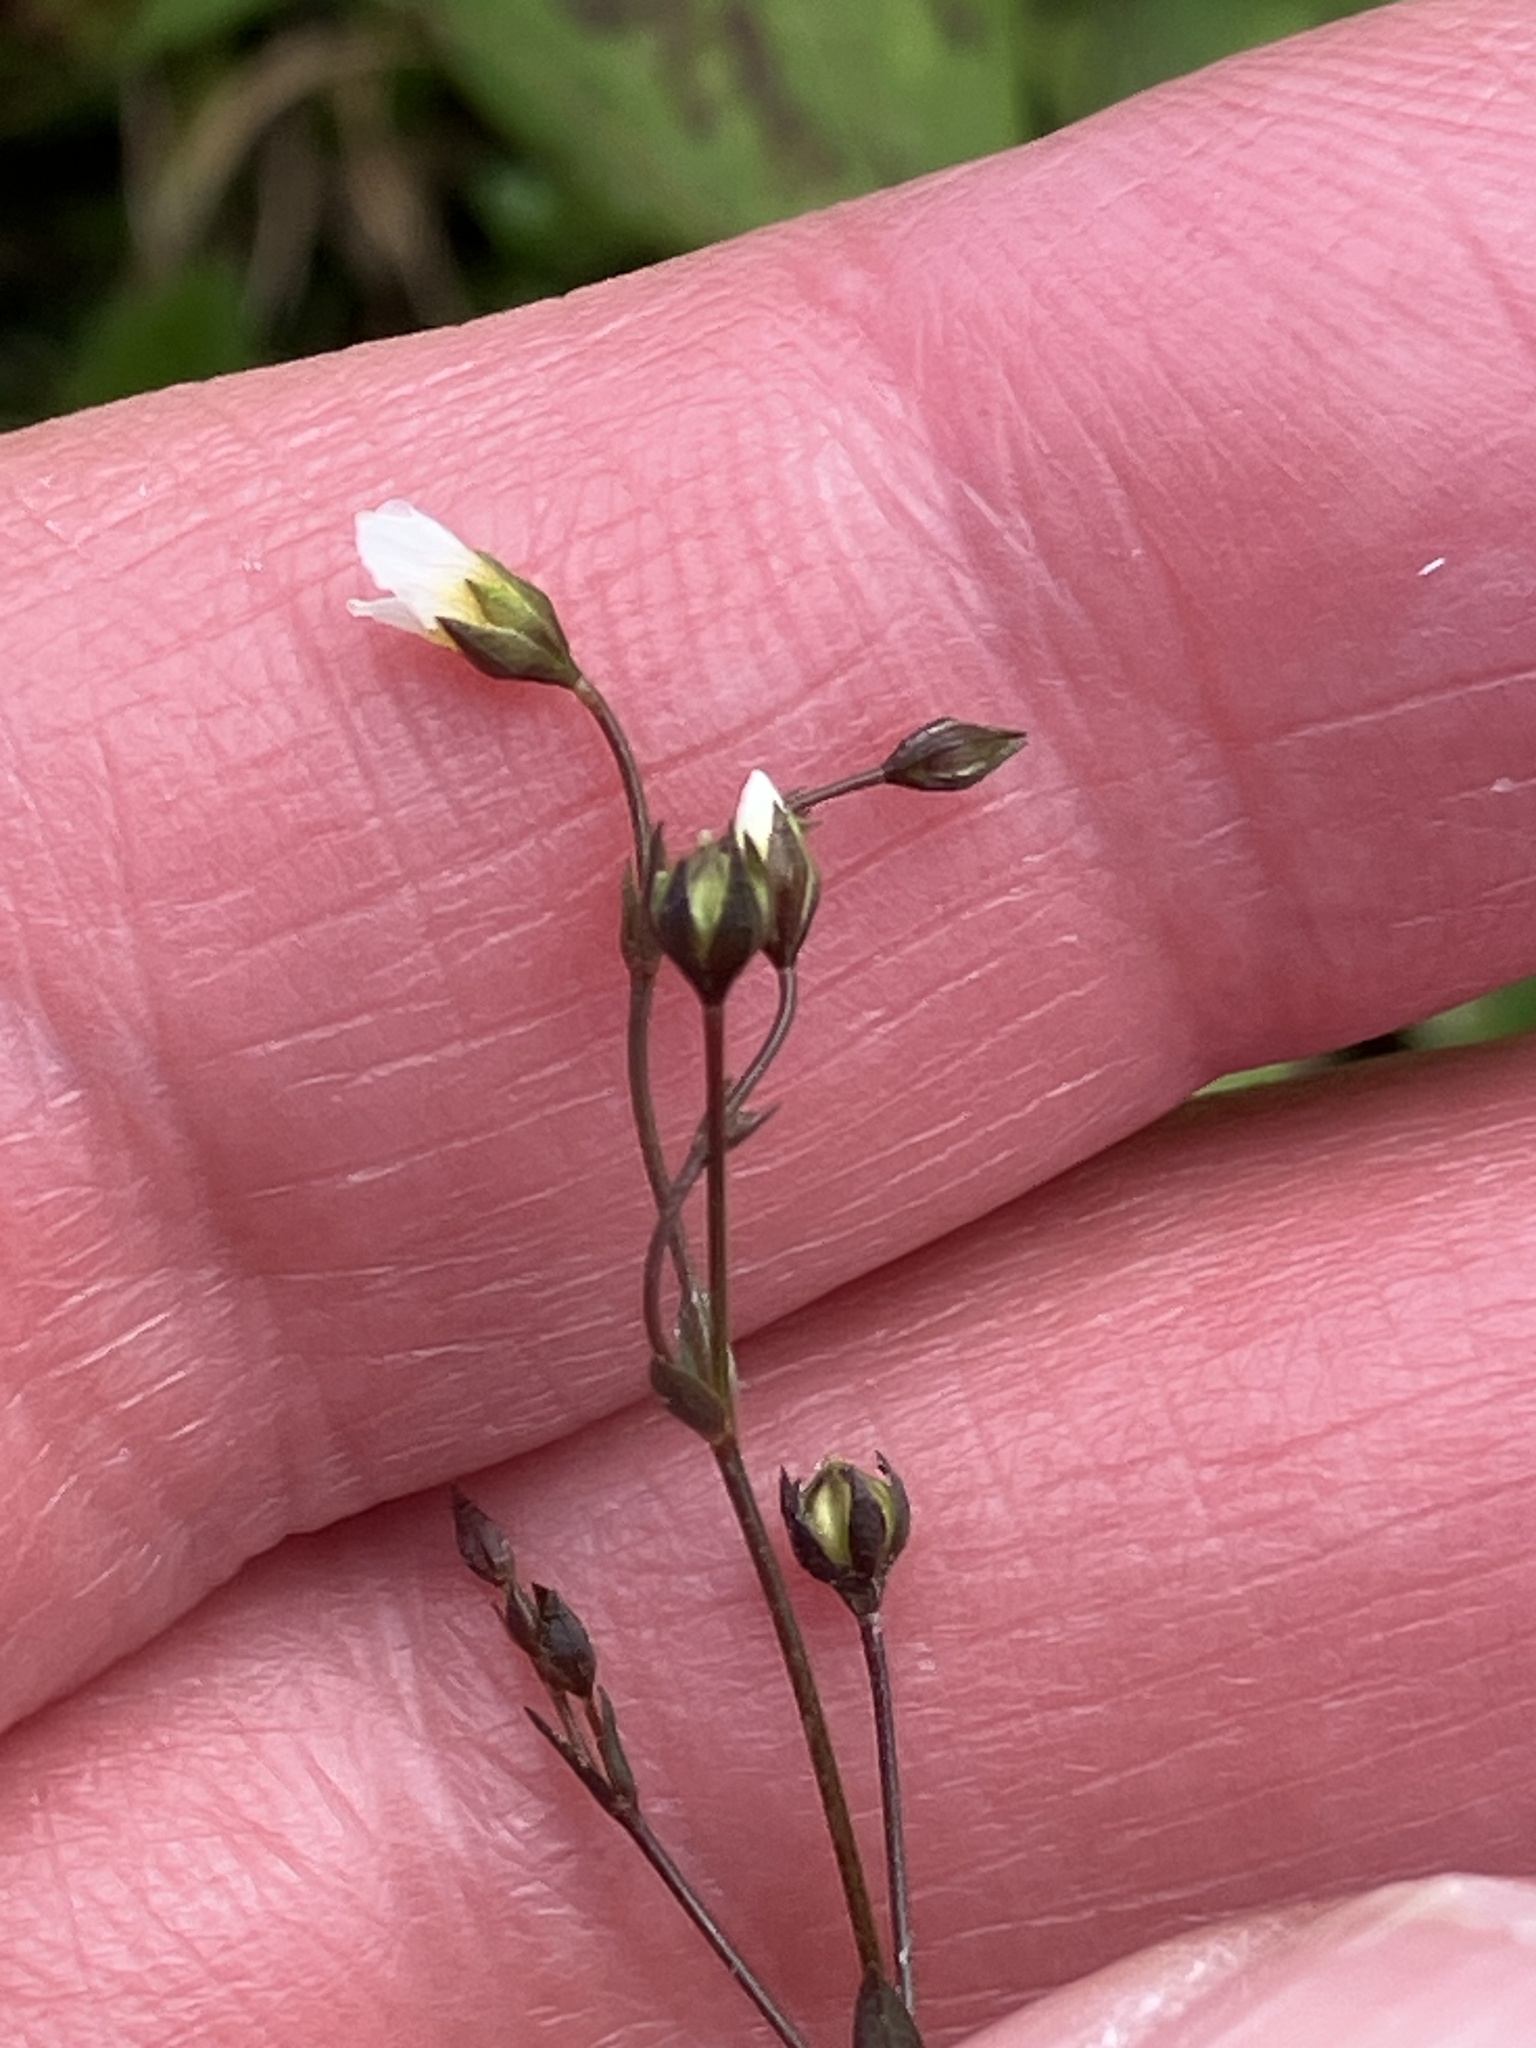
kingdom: Plantae
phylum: Tracheophyta
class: Magnoliopsida
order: Malpighiales
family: Linaceae
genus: Linum
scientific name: Linum catharticum
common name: Fairy flax
